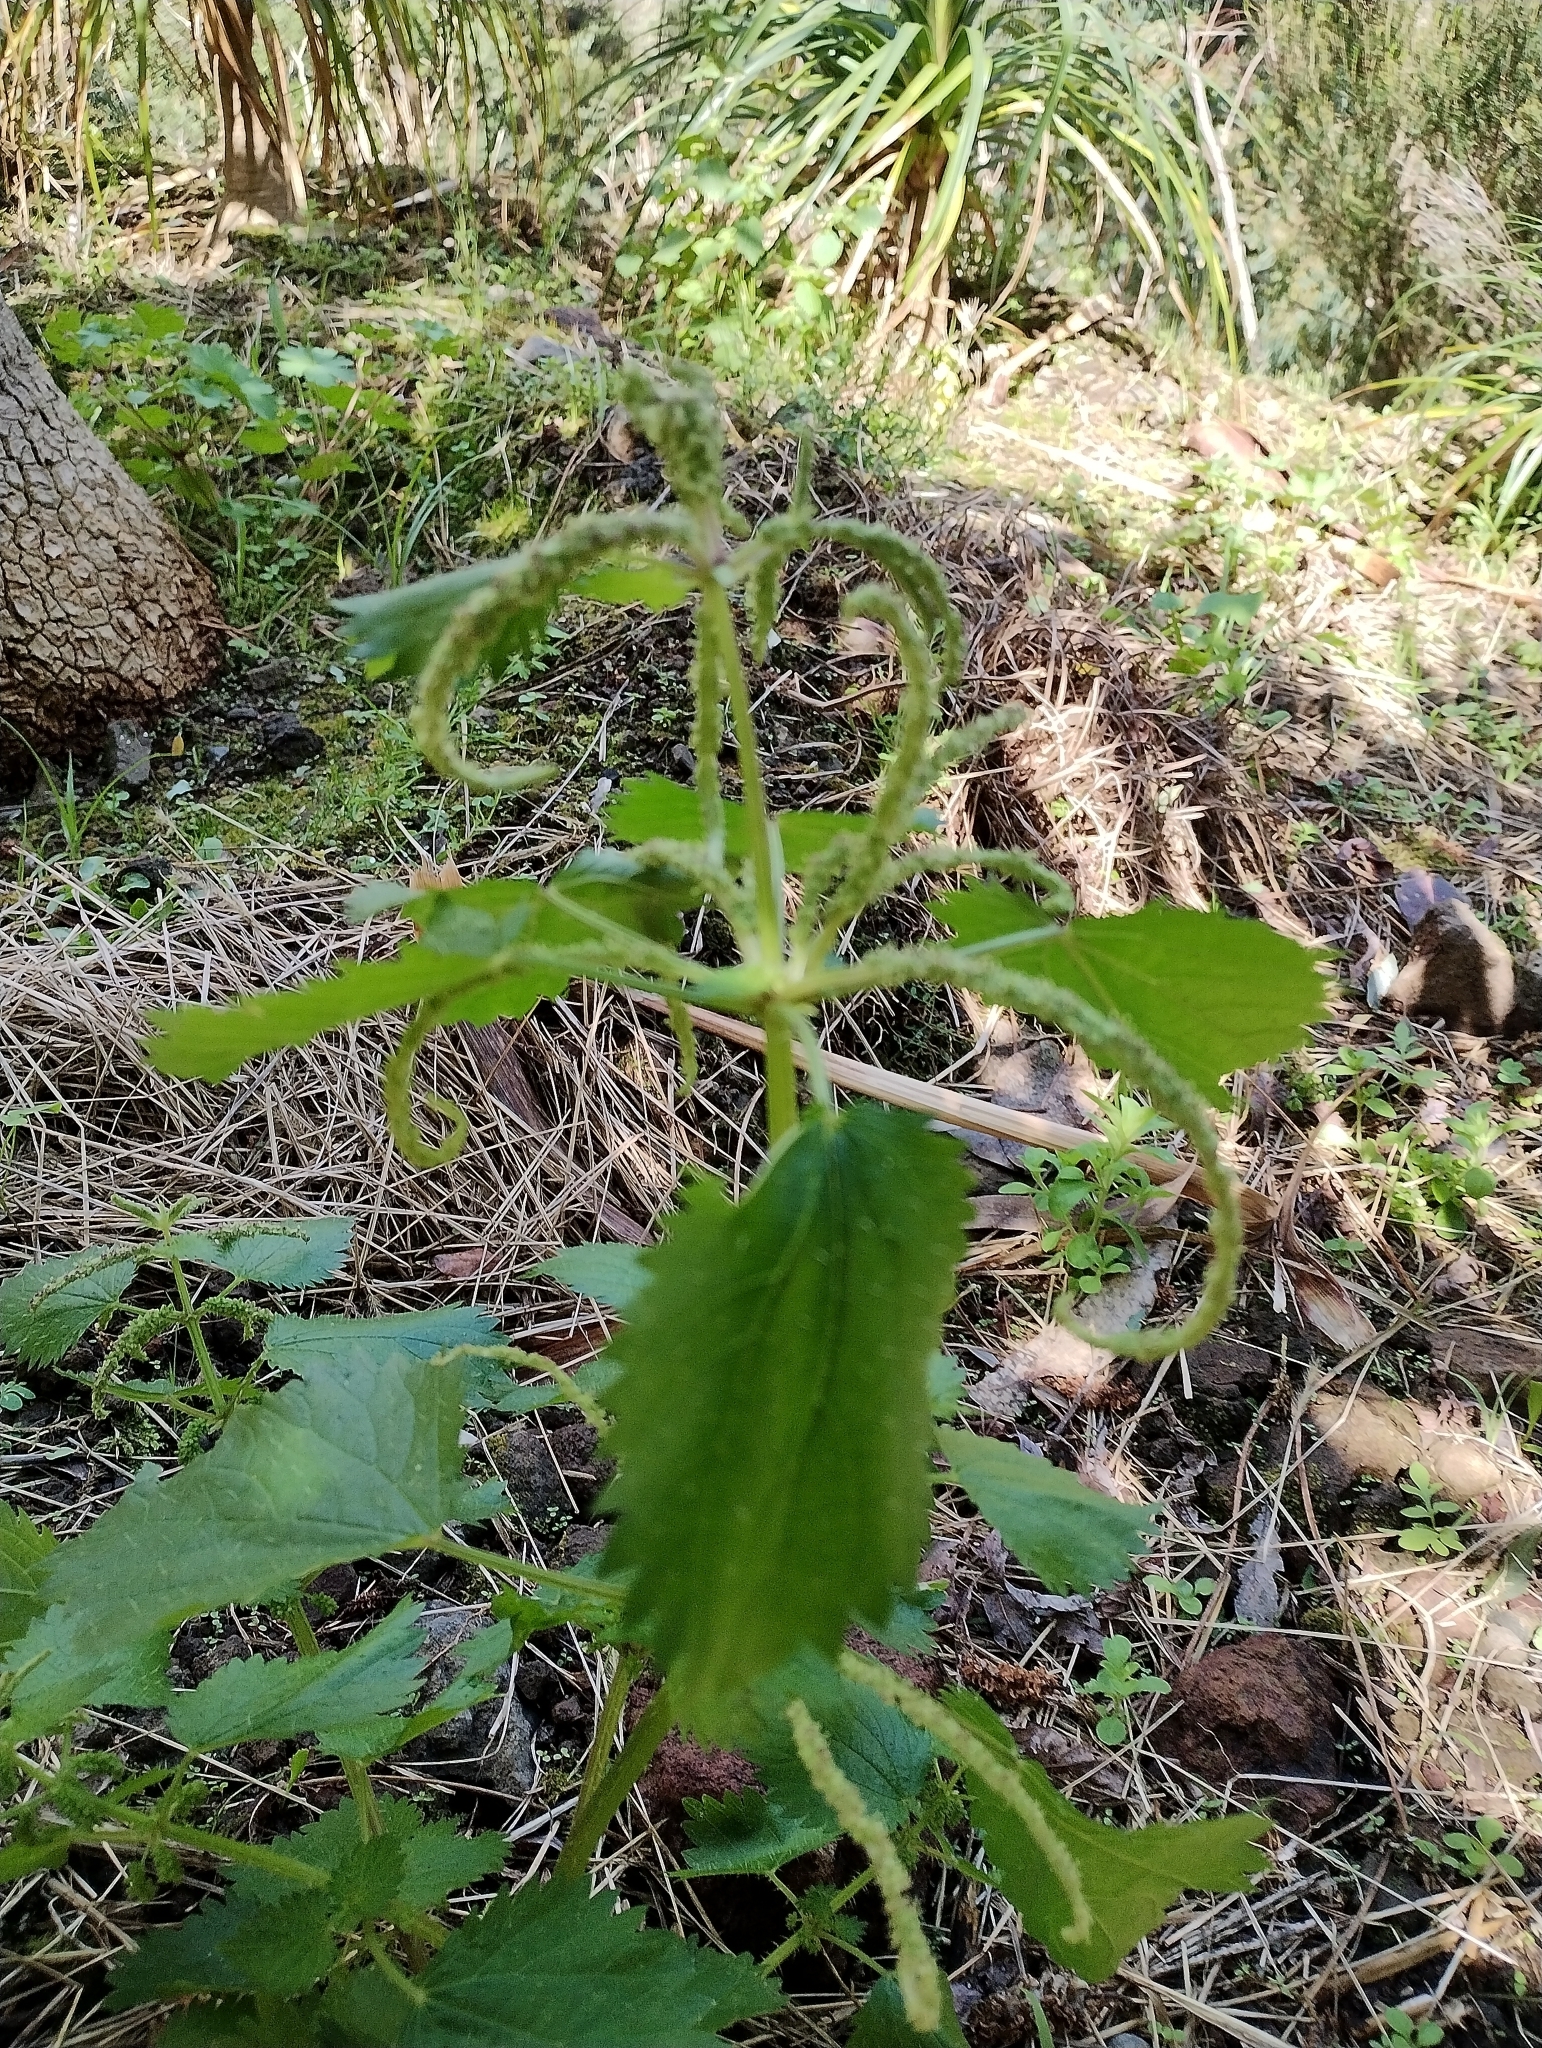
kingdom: Plantae
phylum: Tracheophyta
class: Magnoliopsida
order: Rosales
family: Urticaceae
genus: Urtica
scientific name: Urtica membranacea
